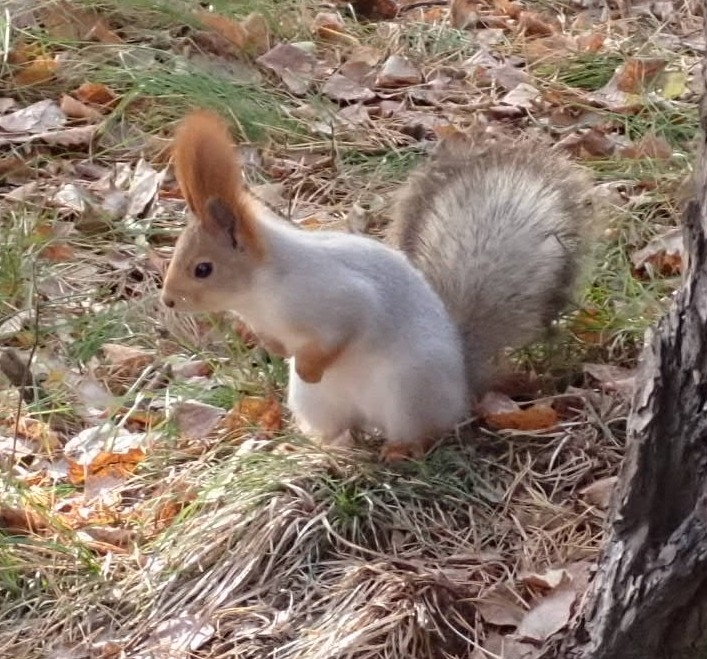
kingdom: Animalia
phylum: Chordata
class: Mammalia
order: Rodentia
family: Sciuridae
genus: Sciurus
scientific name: Sciurus vulgaris
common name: Eurasian red squirrel
